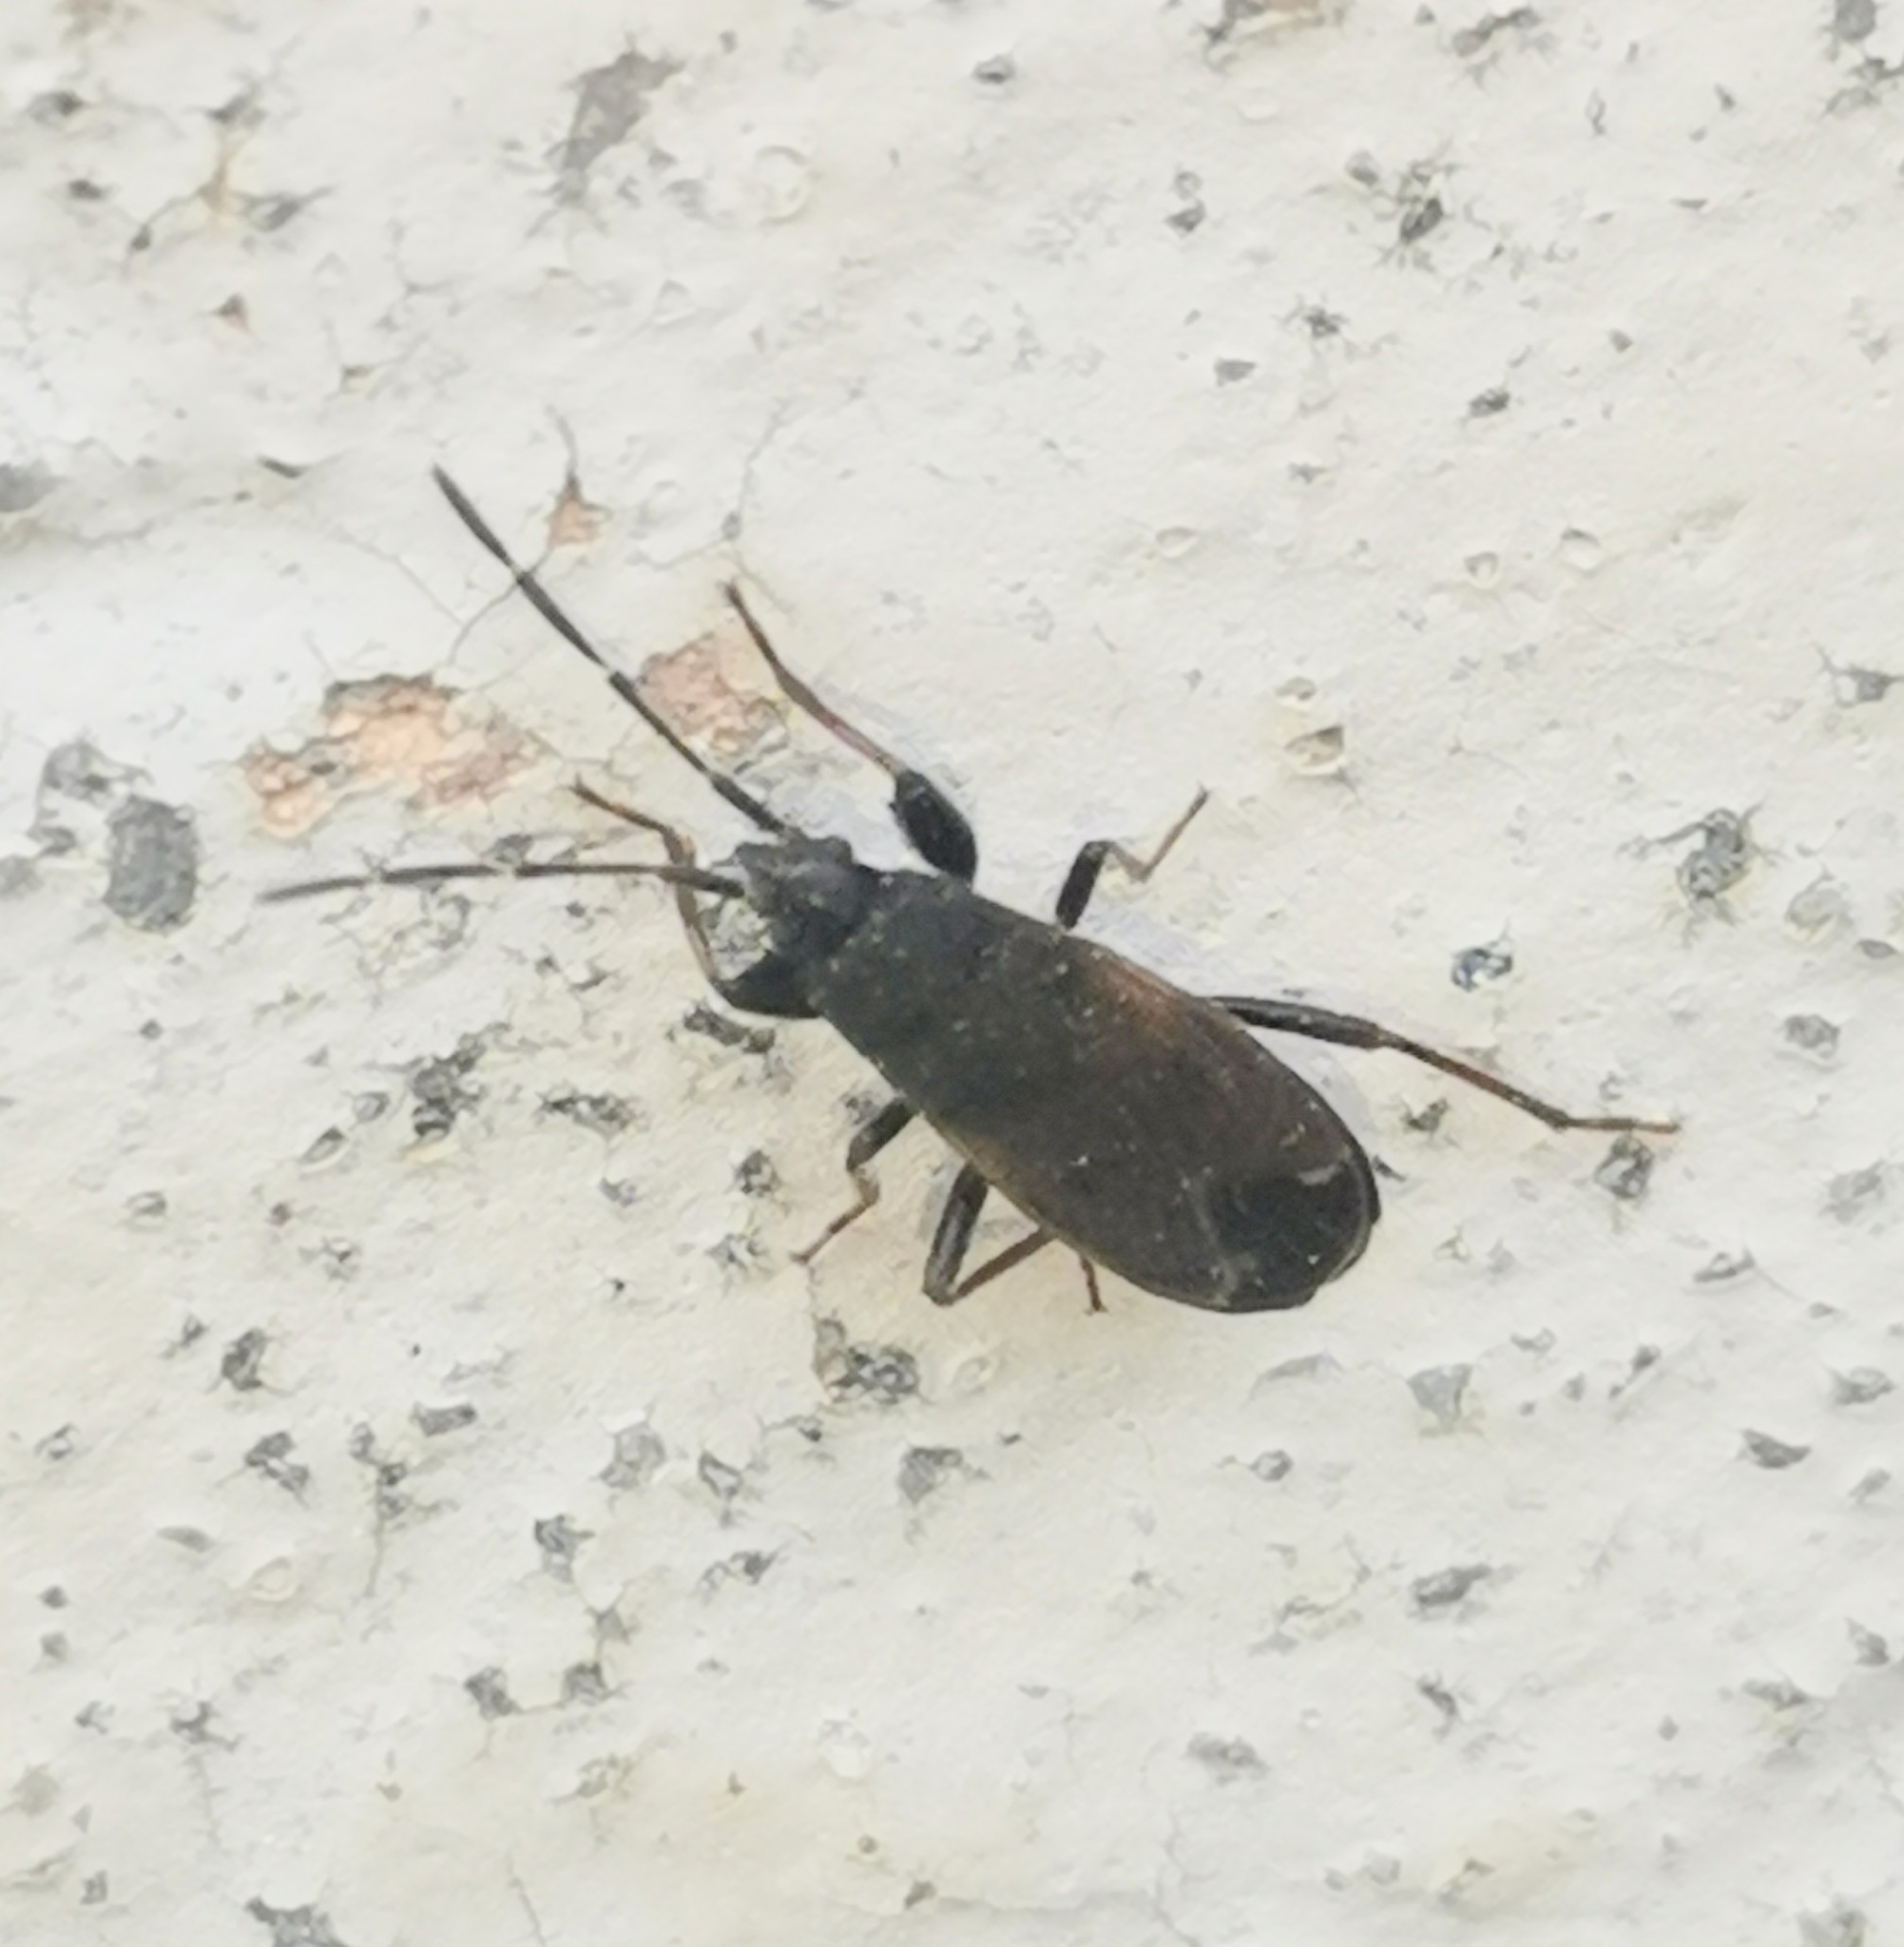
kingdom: Animalia
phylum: Arthropoda
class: Insecta
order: Hemiptera
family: Rhyparochromidae
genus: Eremocoris
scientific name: Eremocoris plebejus
